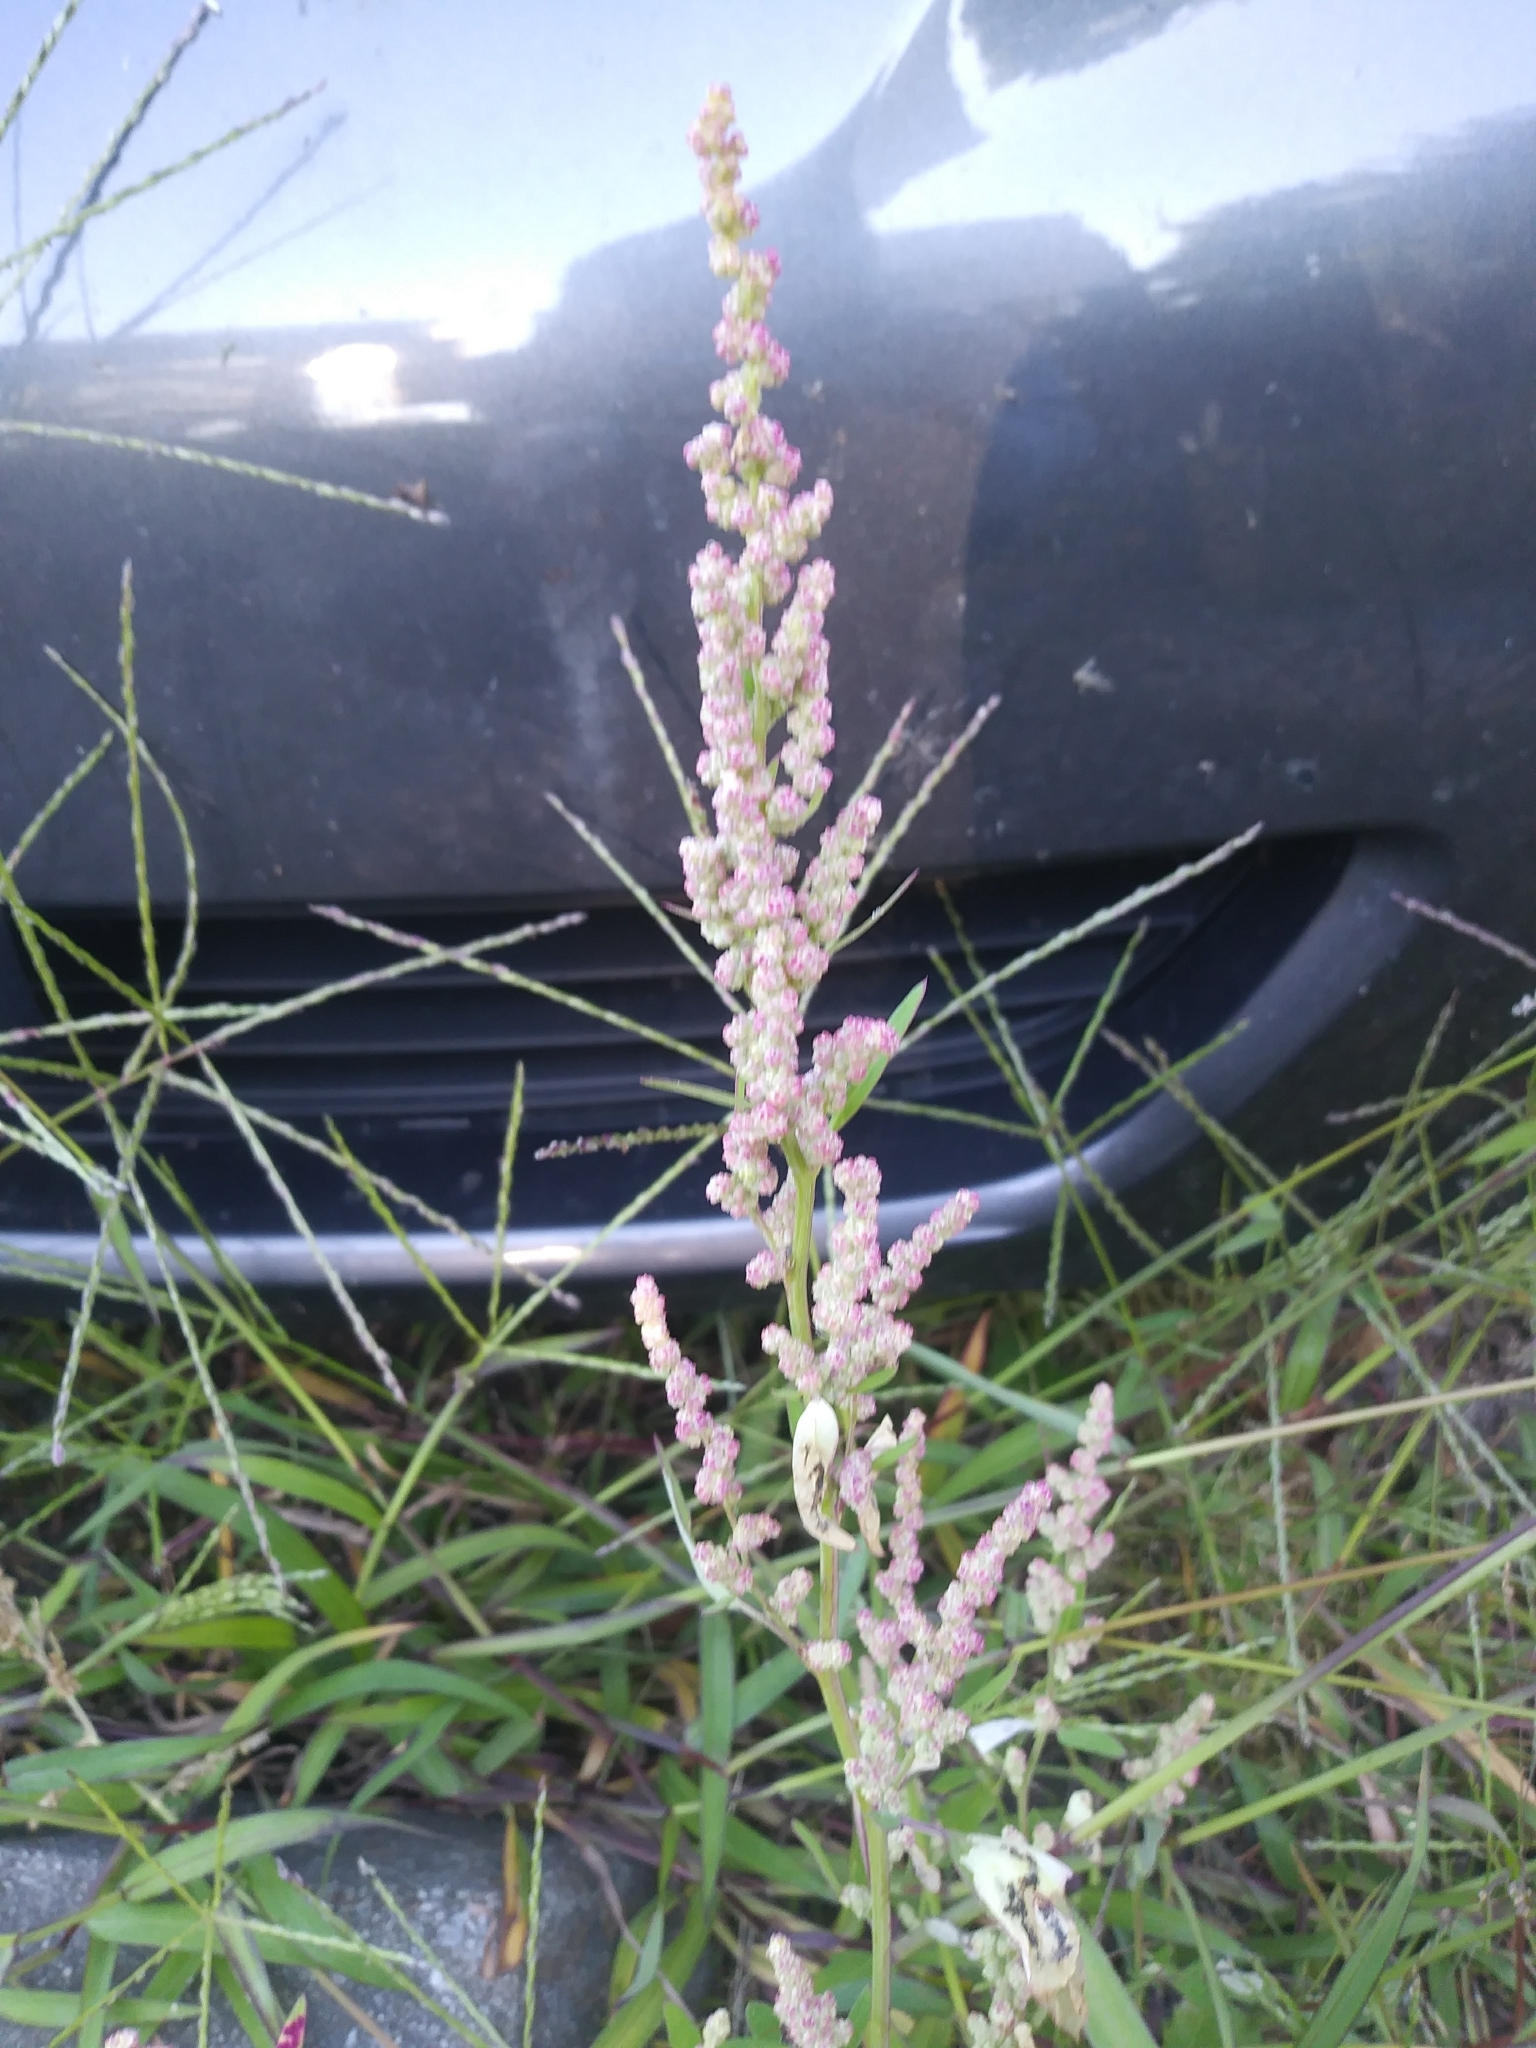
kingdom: Plantae
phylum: Tracheophyta
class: Magnoliopsida
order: Caryophyllales
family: Amaranthaceae
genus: Chenopodium
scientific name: Chenopodium album
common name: Fat-hen
